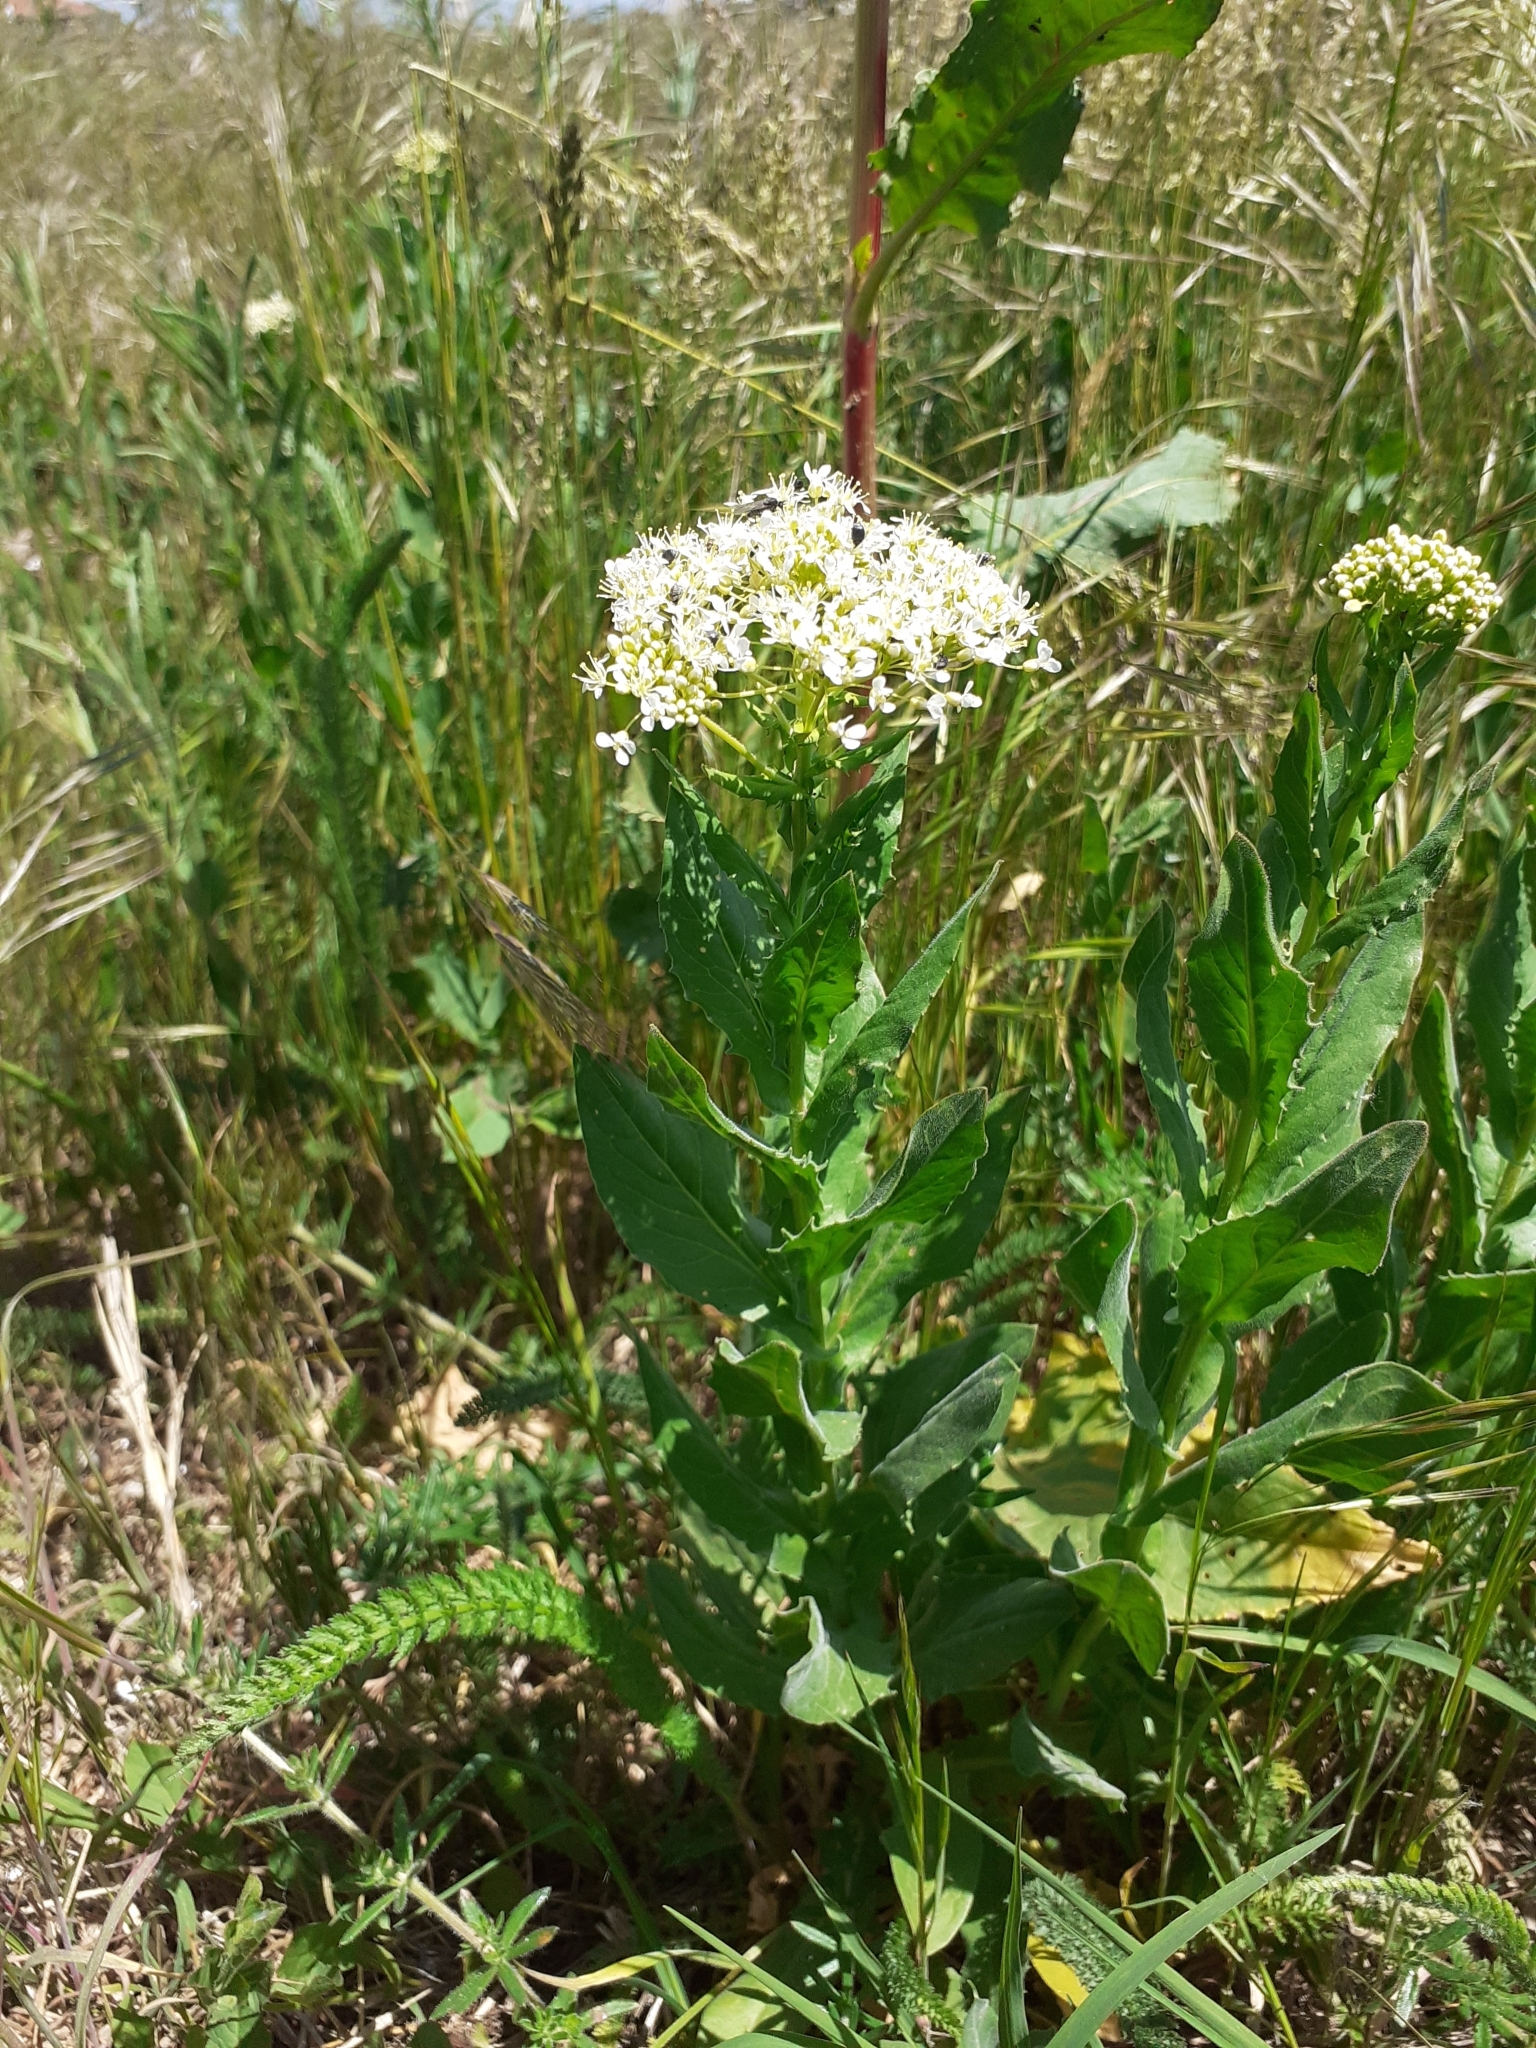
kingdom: Plantae
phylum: Tracheophyta
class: Magnoliopsida
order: Brassicales
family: Brassicaceae
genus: Lepidium
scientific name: Lepidium draba
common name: Hoary cress
